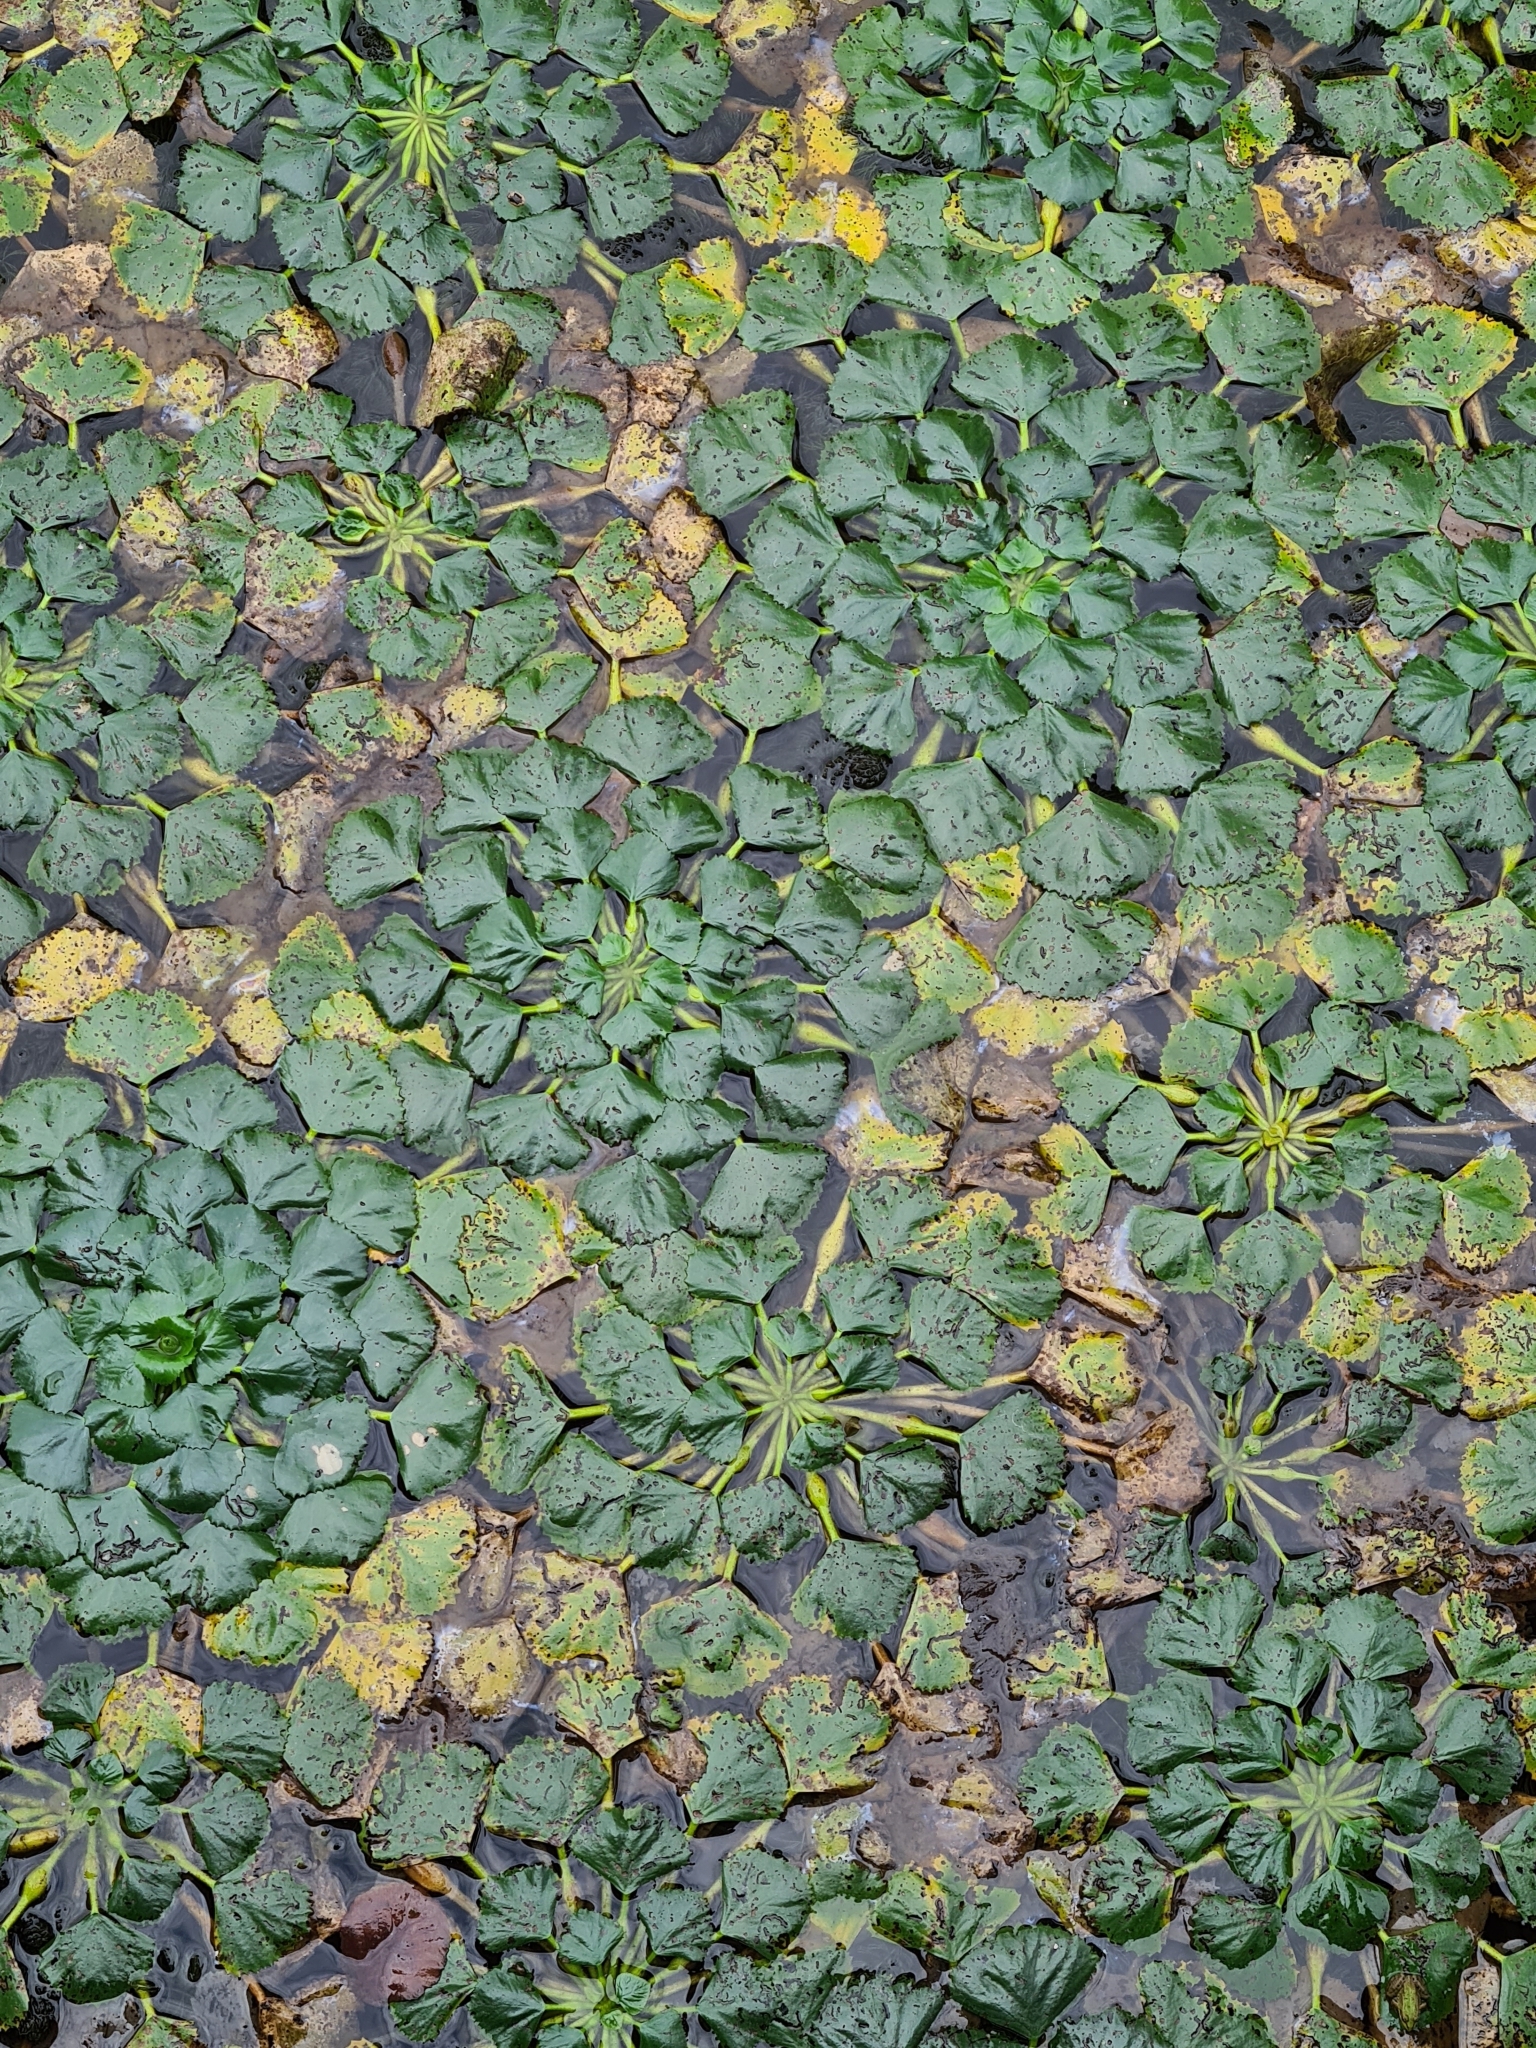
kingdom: Plantae
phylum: Tracheophyta
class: Magnoliopsida
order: Myrtales
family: Lythraceae
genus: Trapa
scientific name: Trapa natans
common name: Water chestnut
